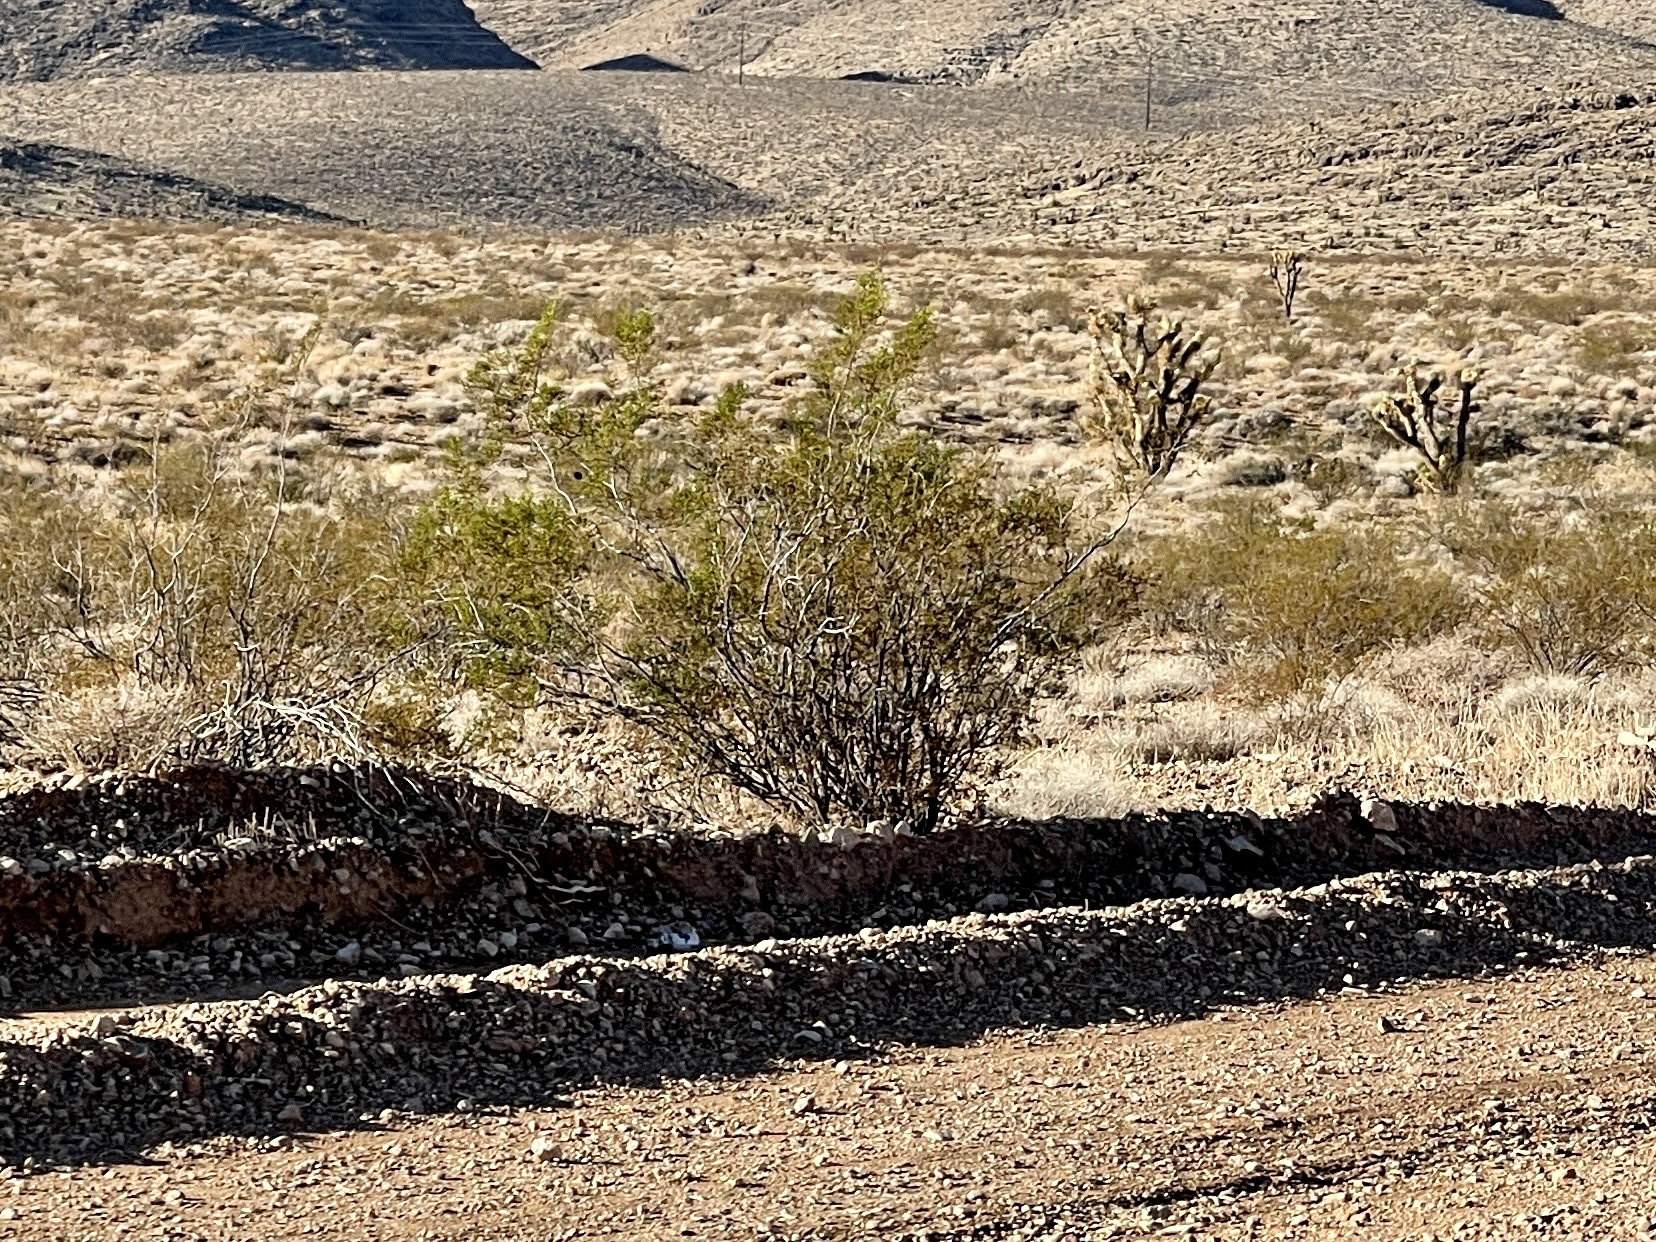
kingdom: Plantae
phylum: Tracheophyta
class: Magnoliopsida
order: Zygophyllales
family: Zygophyllaceae
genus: Larrea
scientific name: Larrea tridentata
